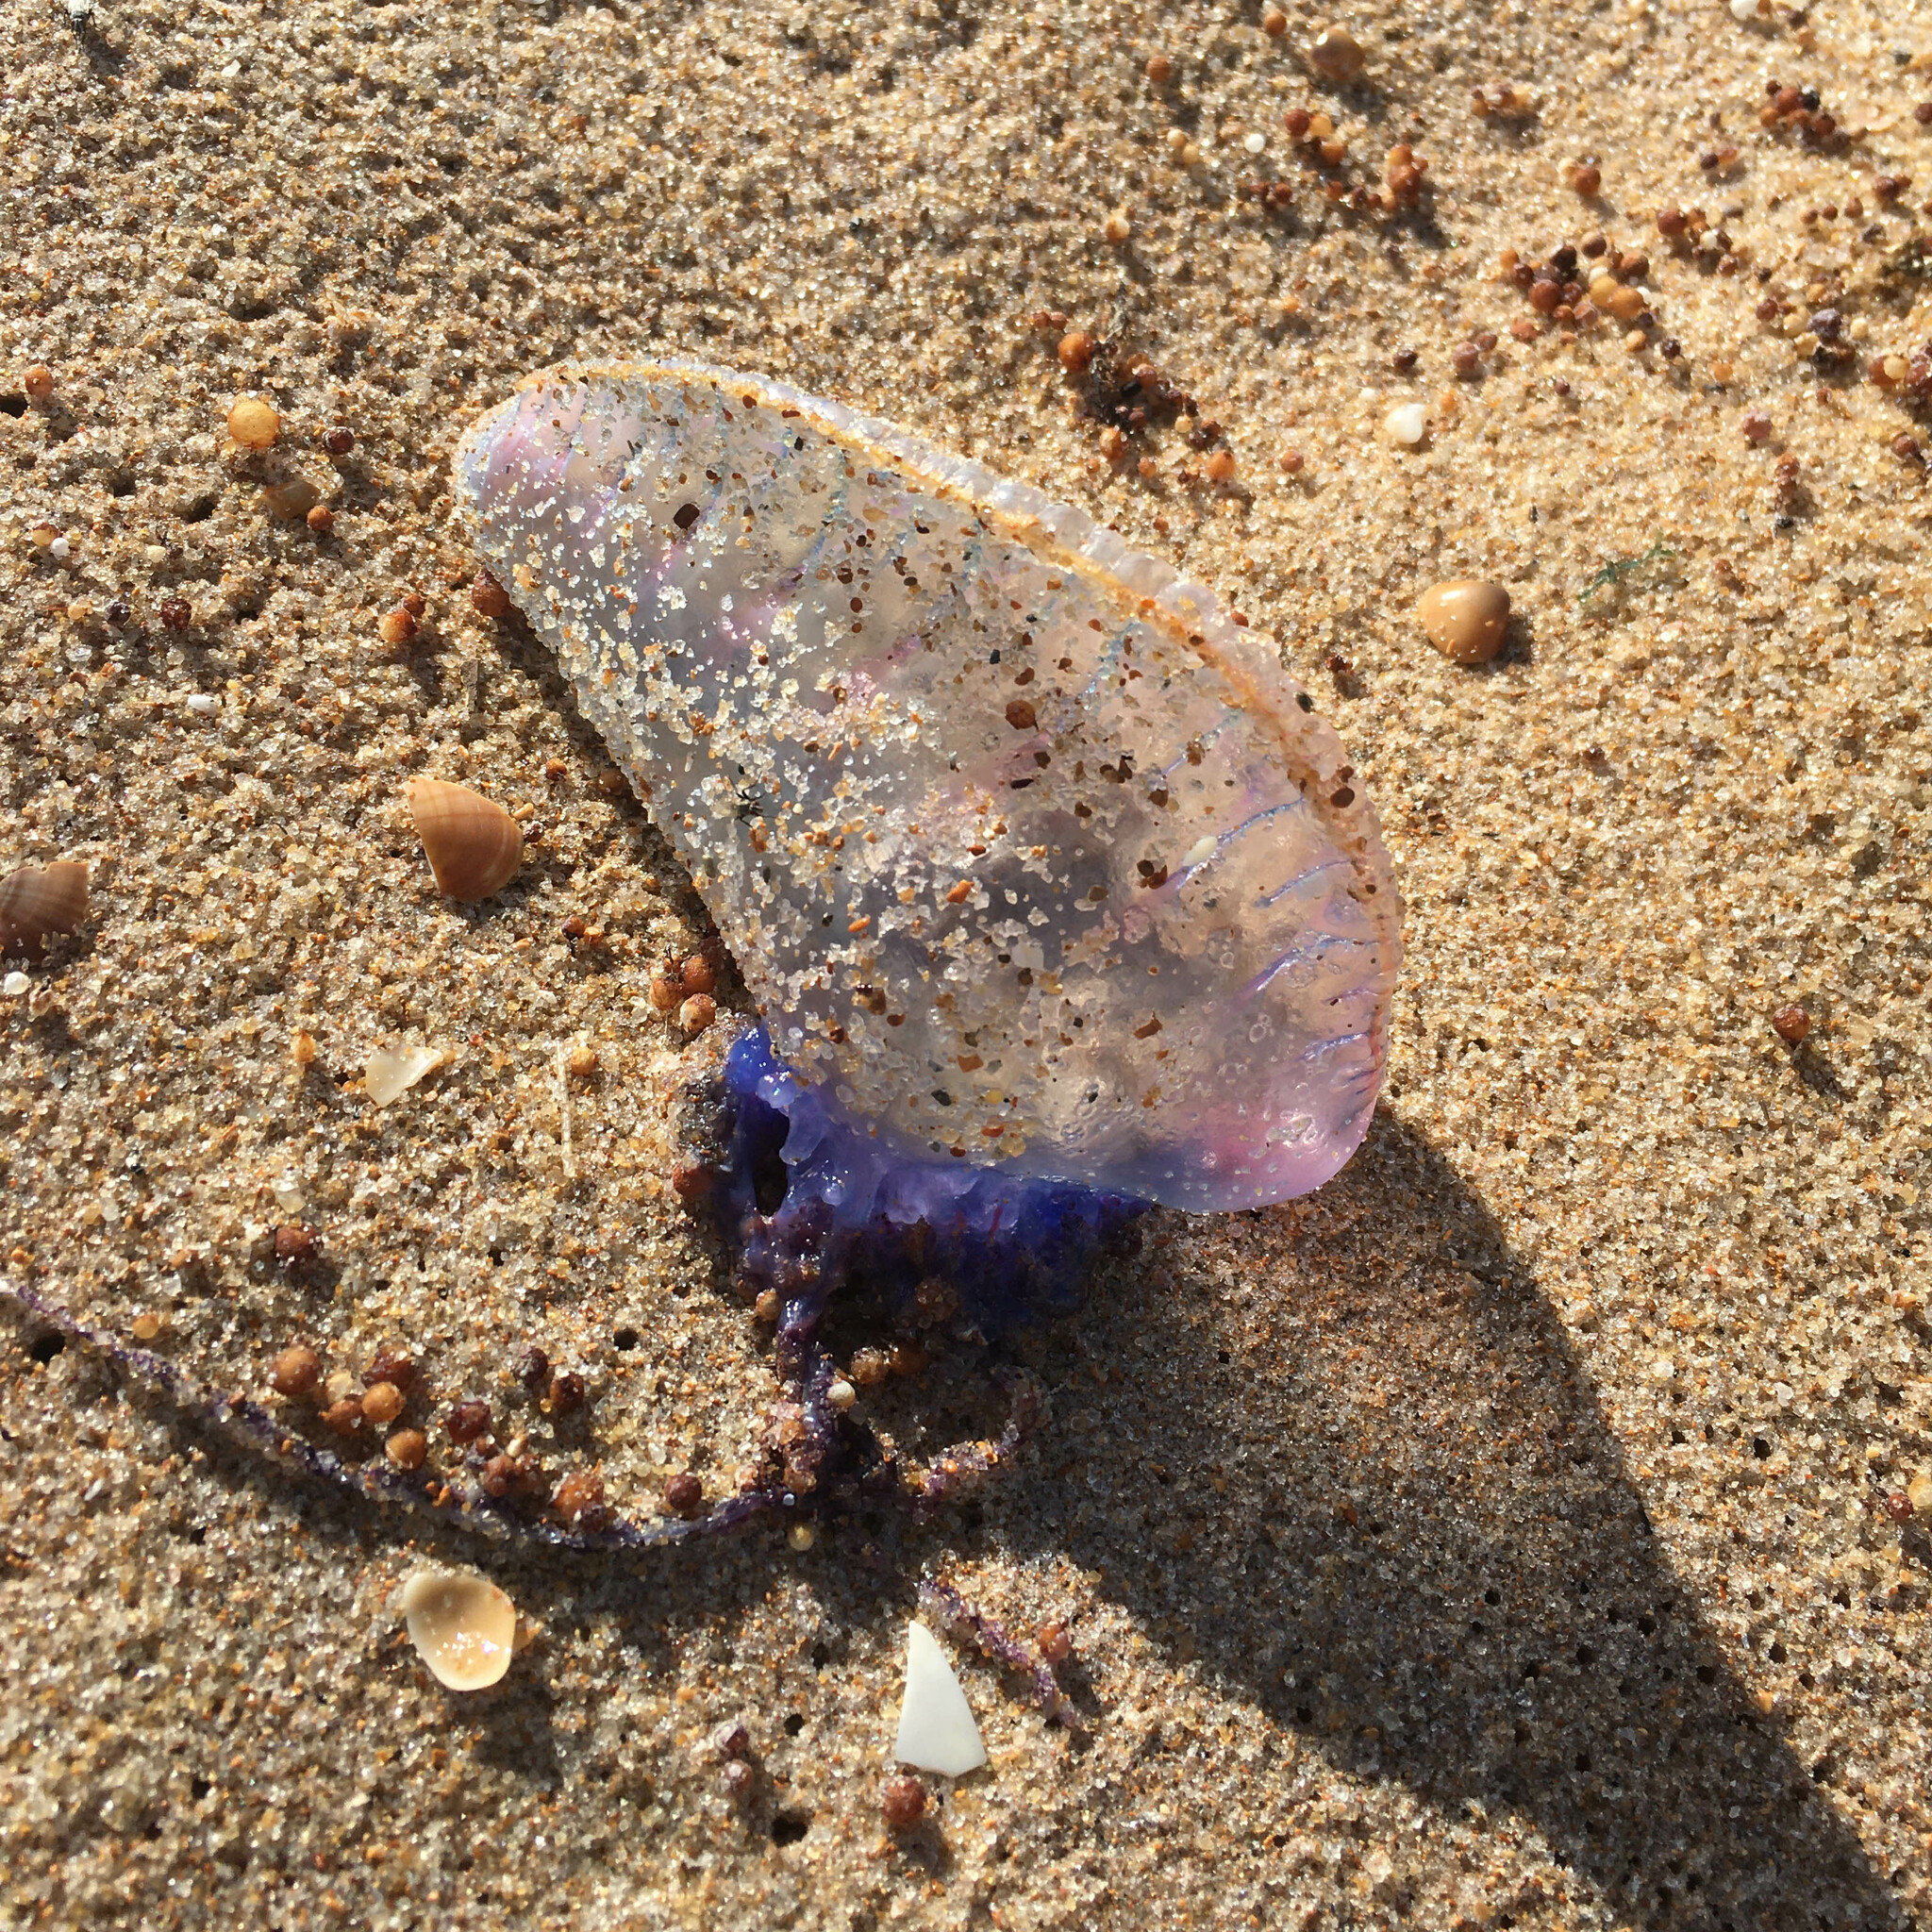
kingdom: Animalia
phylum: Cnidaria
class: Hydrozoa
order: Siphonophorae
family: Physaliidae
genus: Physalia
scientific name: Physalia physalis
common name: Portuguese man-of-war
